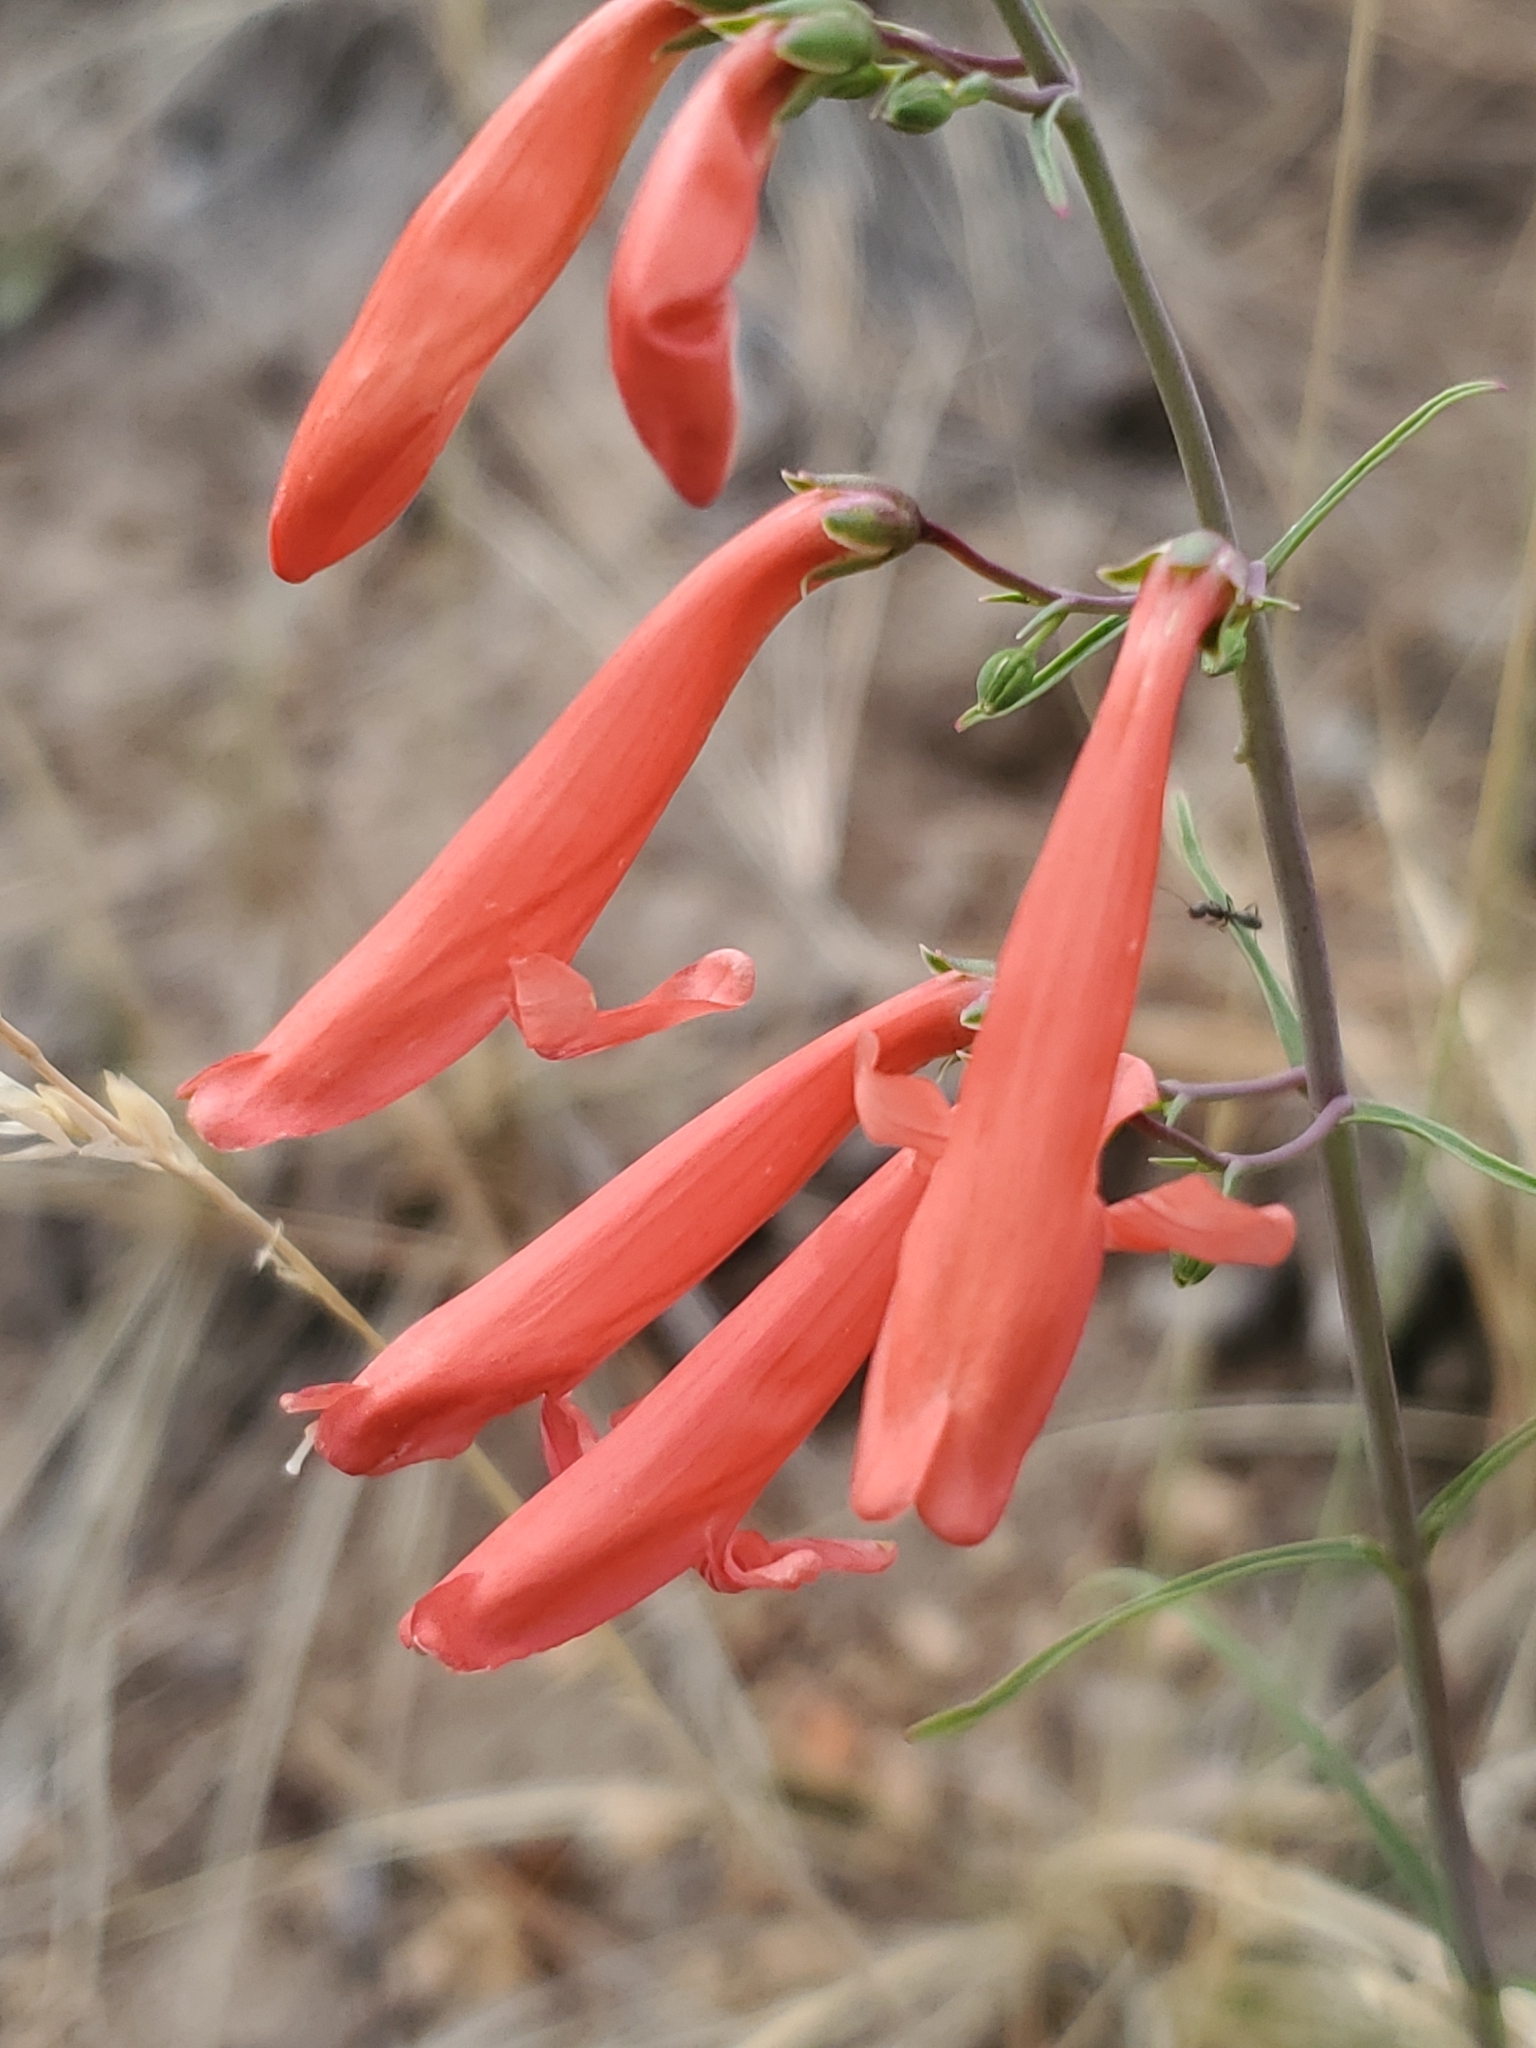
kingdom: Plantae
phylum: Tracheophyta
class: Magnoliopsida
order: Lamiales
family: Plantaginaceae
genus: Penstemon
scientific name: Penstemon barbatus
